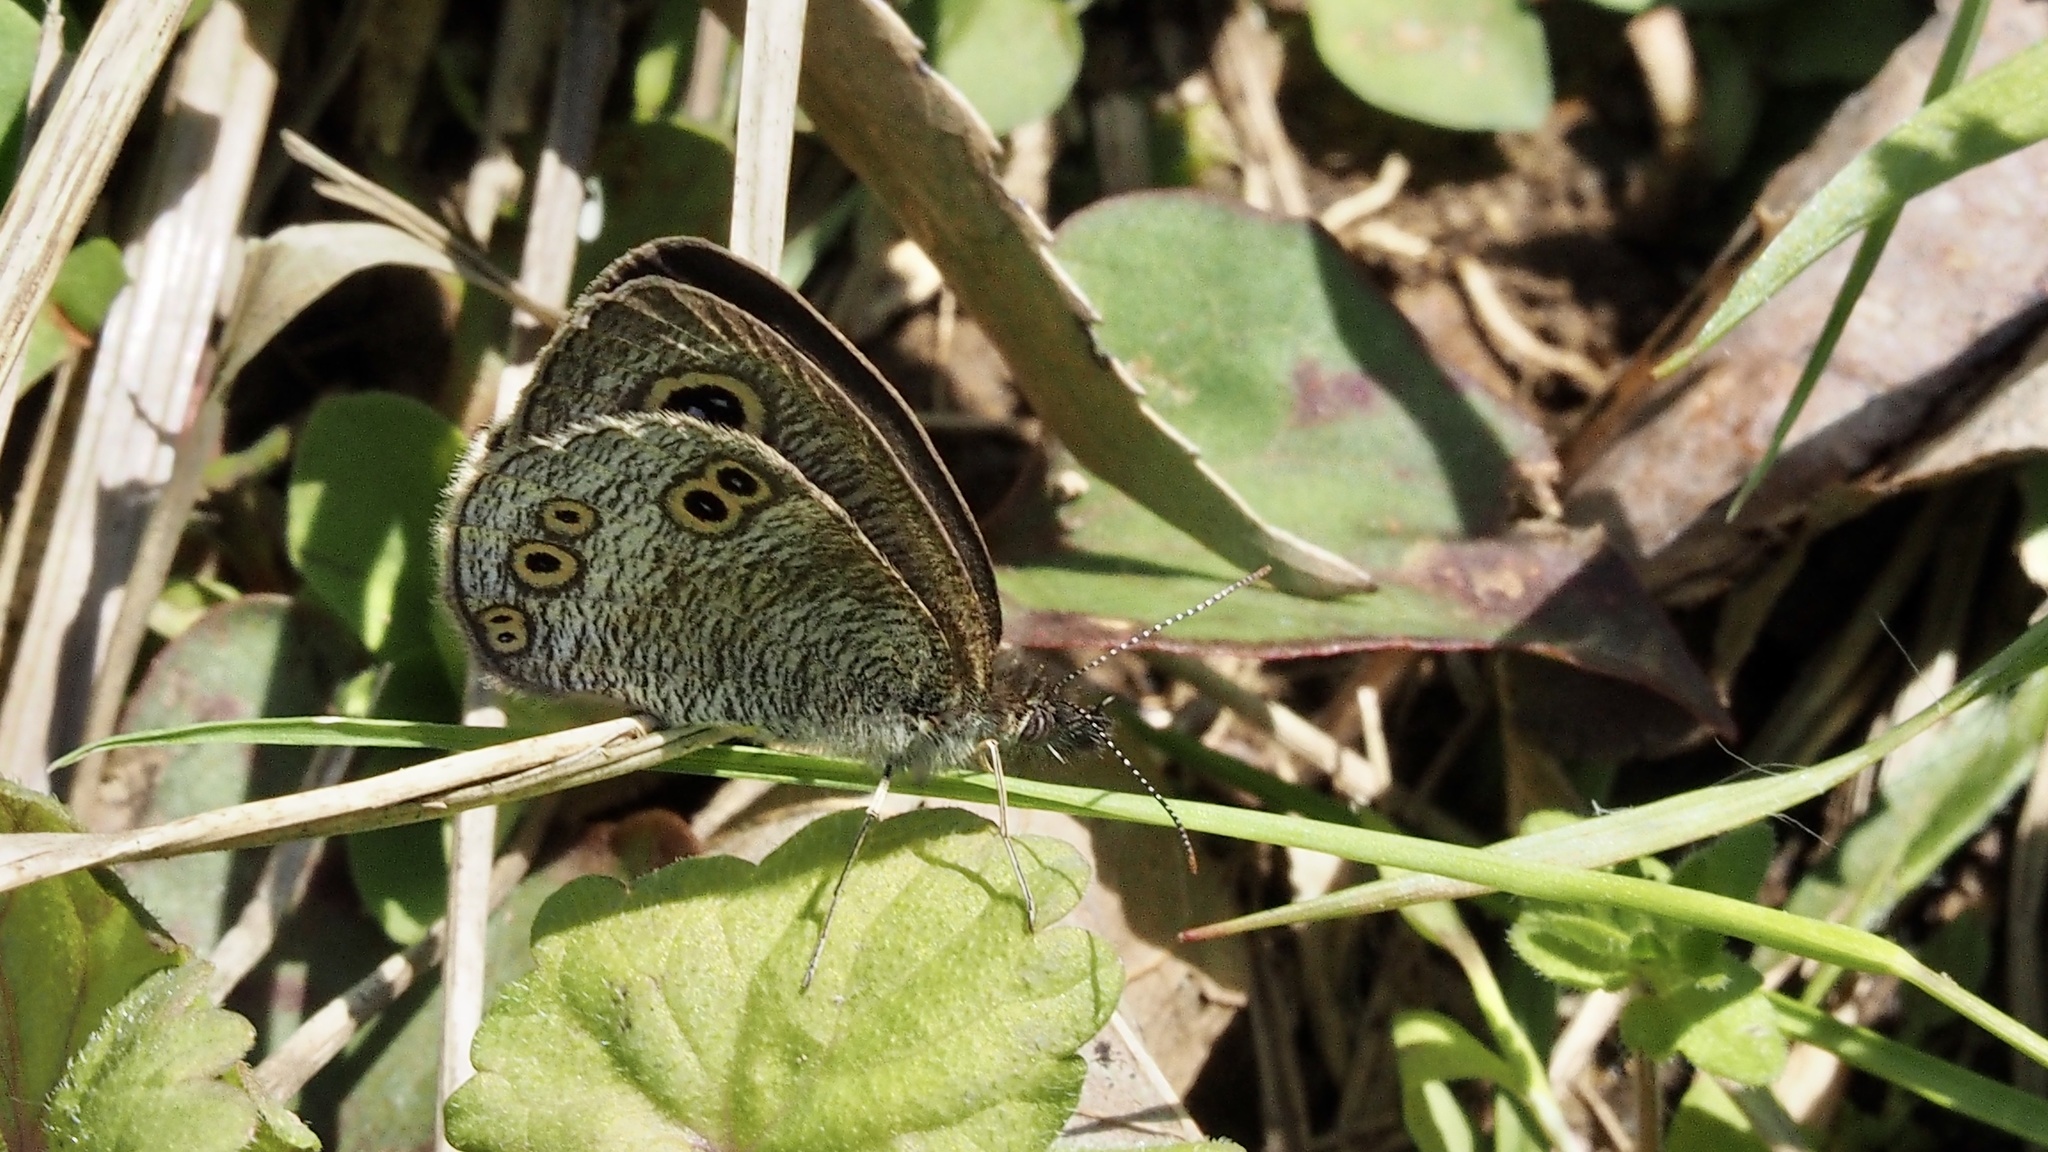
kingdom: Animalia
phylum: Arthropoda
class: Insecta
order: Lepidoptera
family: Nymphalidae
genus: Ypthima
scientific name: Ypthima argus
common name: Common fivering
